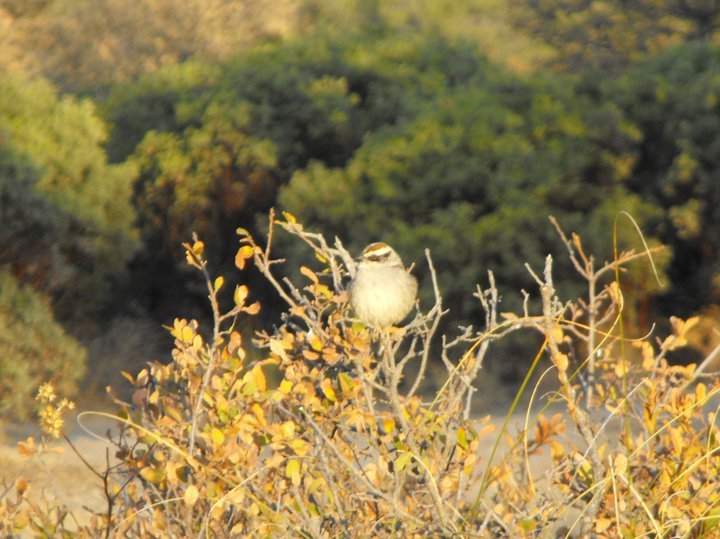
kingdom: Animalia
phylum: Chordata
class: Aves
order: Passeriformes
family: Passerellidae
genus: Oriturus
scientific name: Oriturus superciliosus
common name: Striped sparrow
